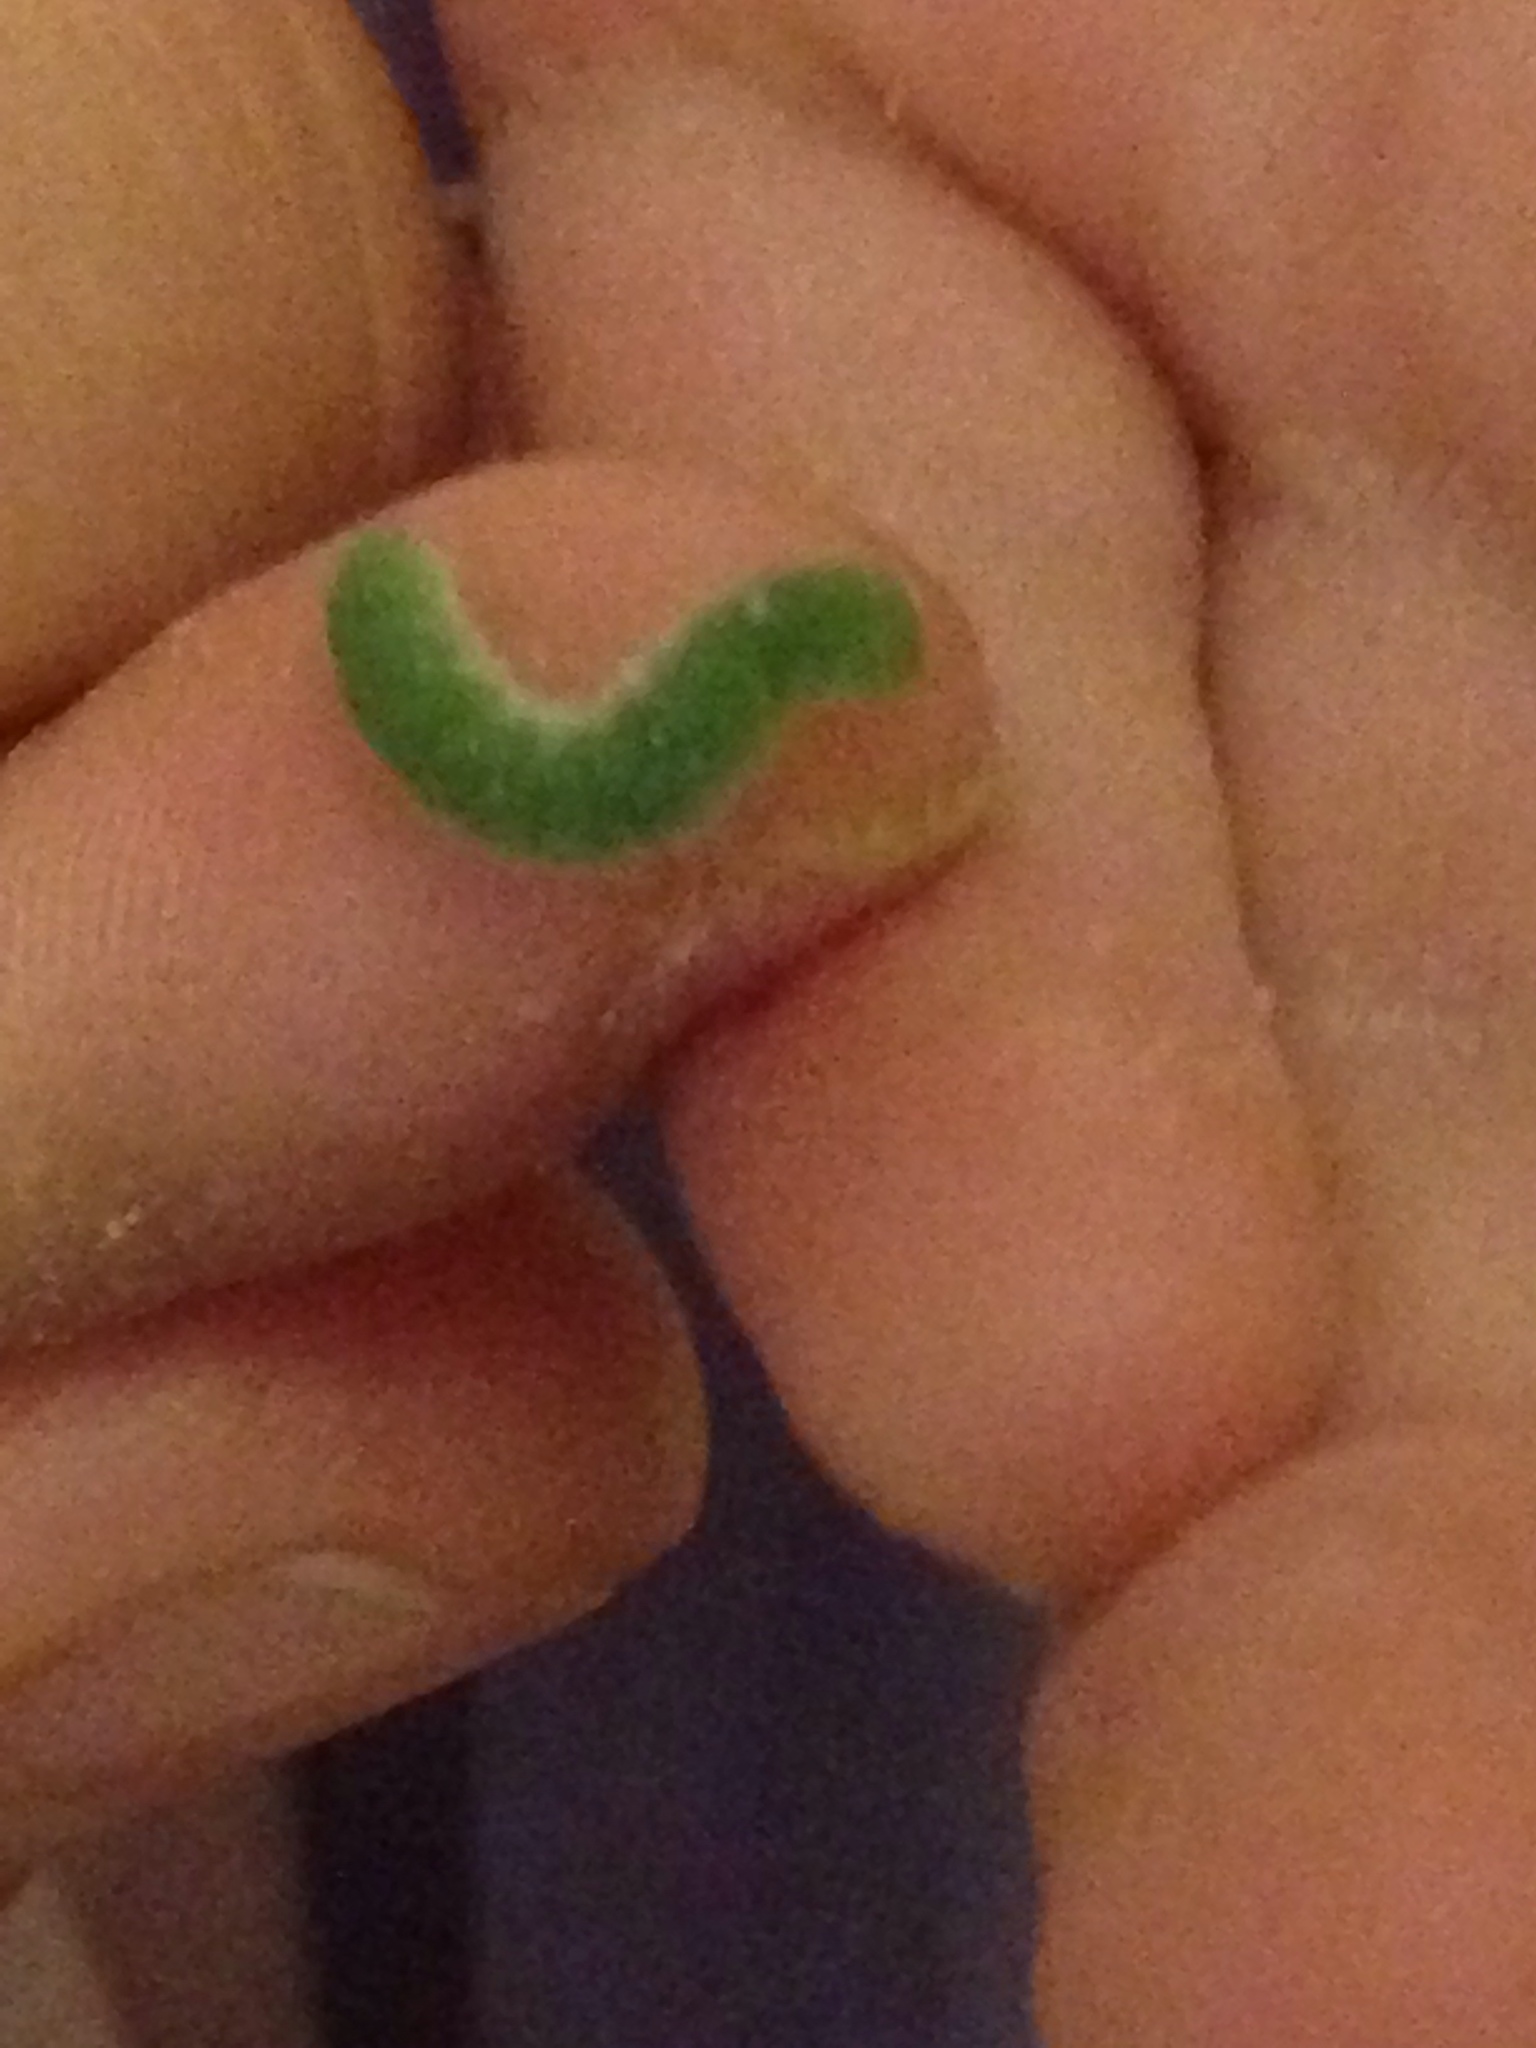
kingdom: Animalia
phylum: Arthropoda
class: Insecta
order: Lepidoptera
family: Pieridae
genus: Pieris
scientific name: Pieris rapae
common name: Small white
